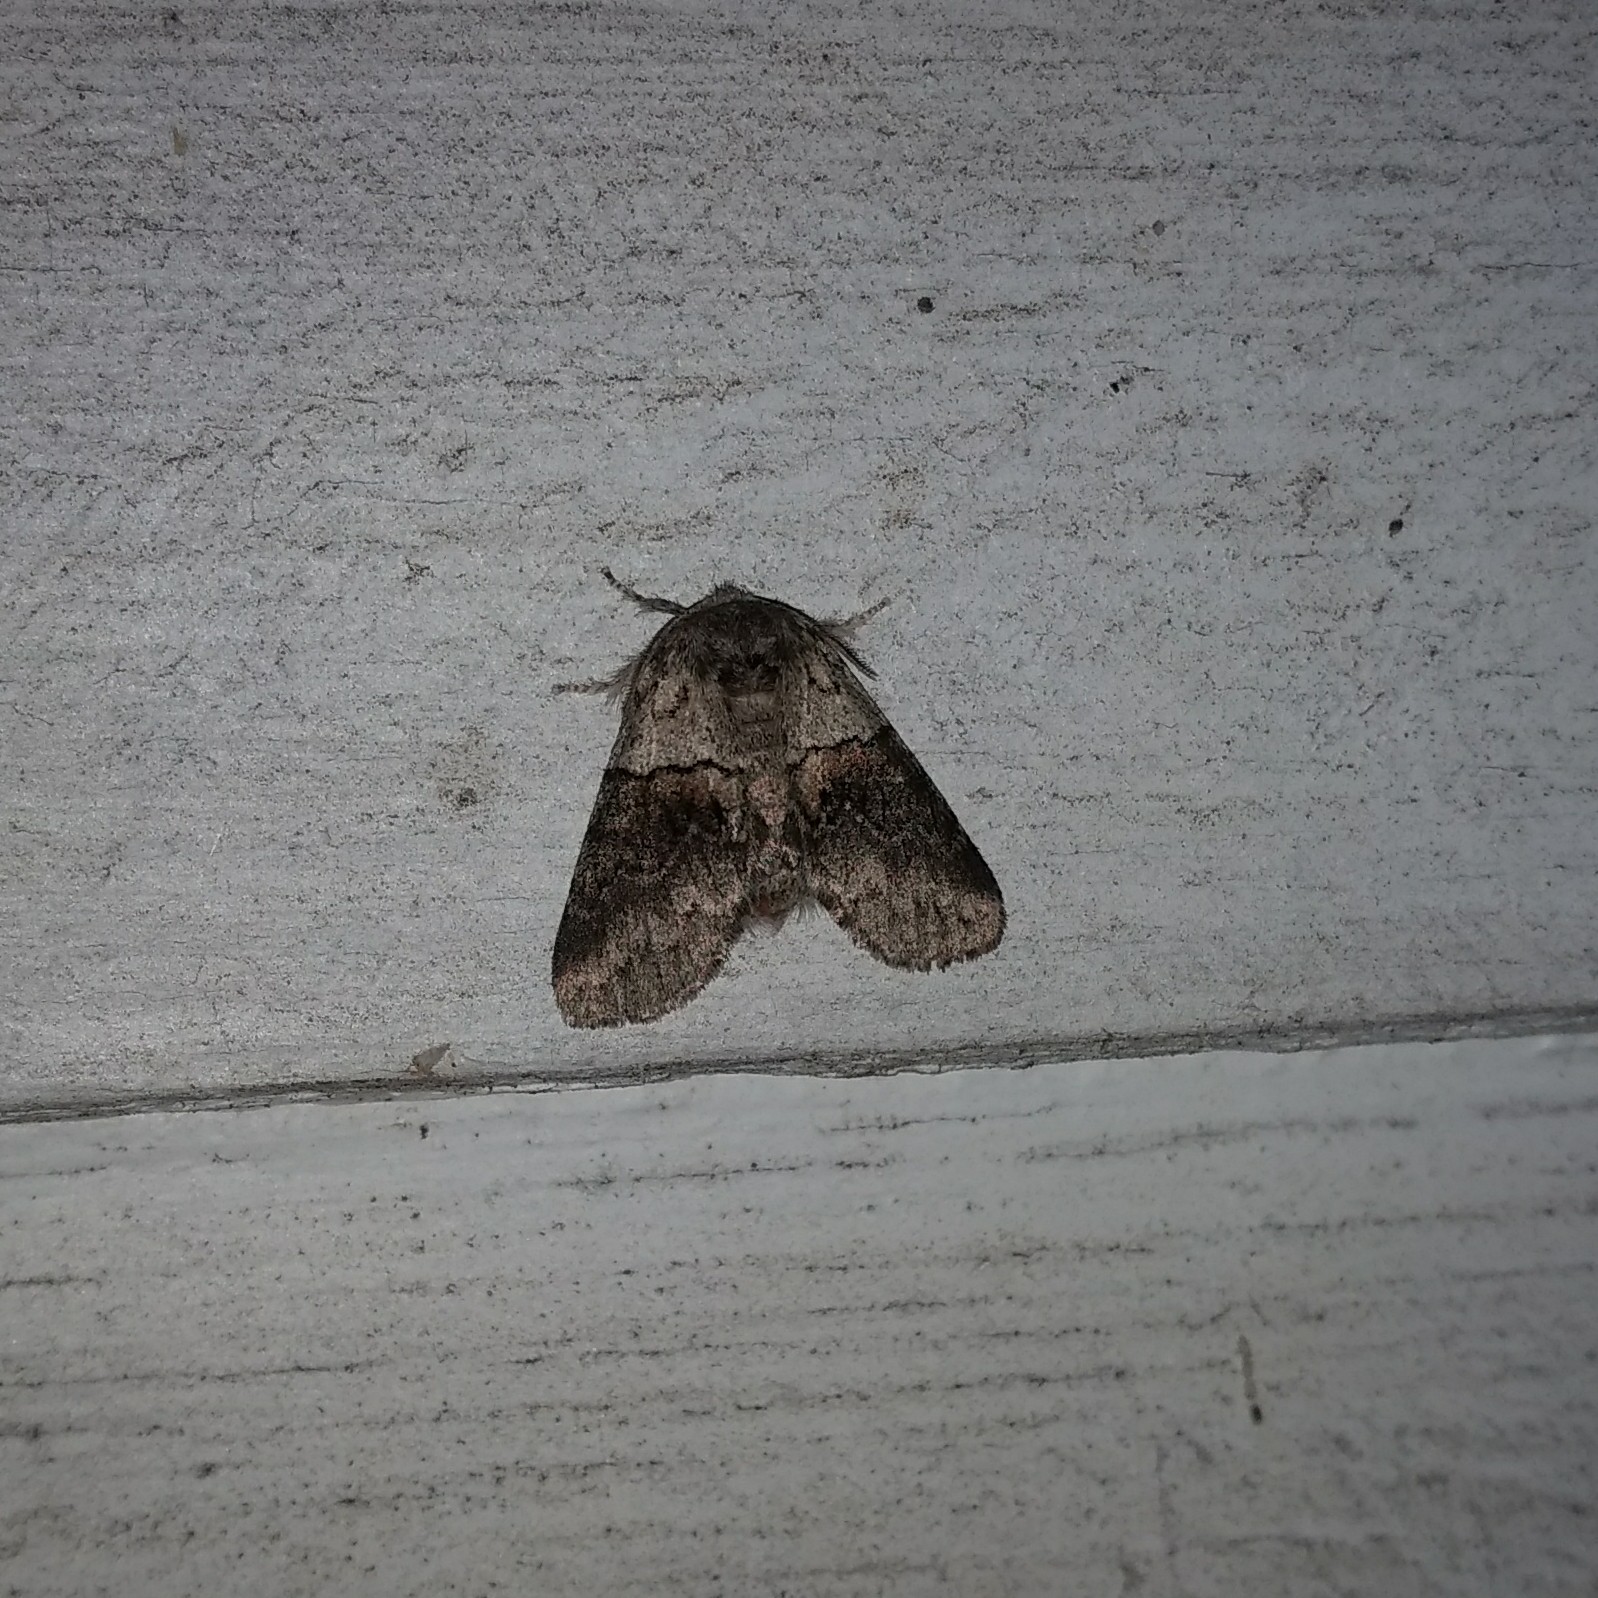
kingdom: Animalia
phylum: Arthropoda
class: Insecta
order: Lepidoptera
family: Notodontidae
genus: Gluphisia
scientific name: Gluphisia septentrionis
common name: Common gluphisia
